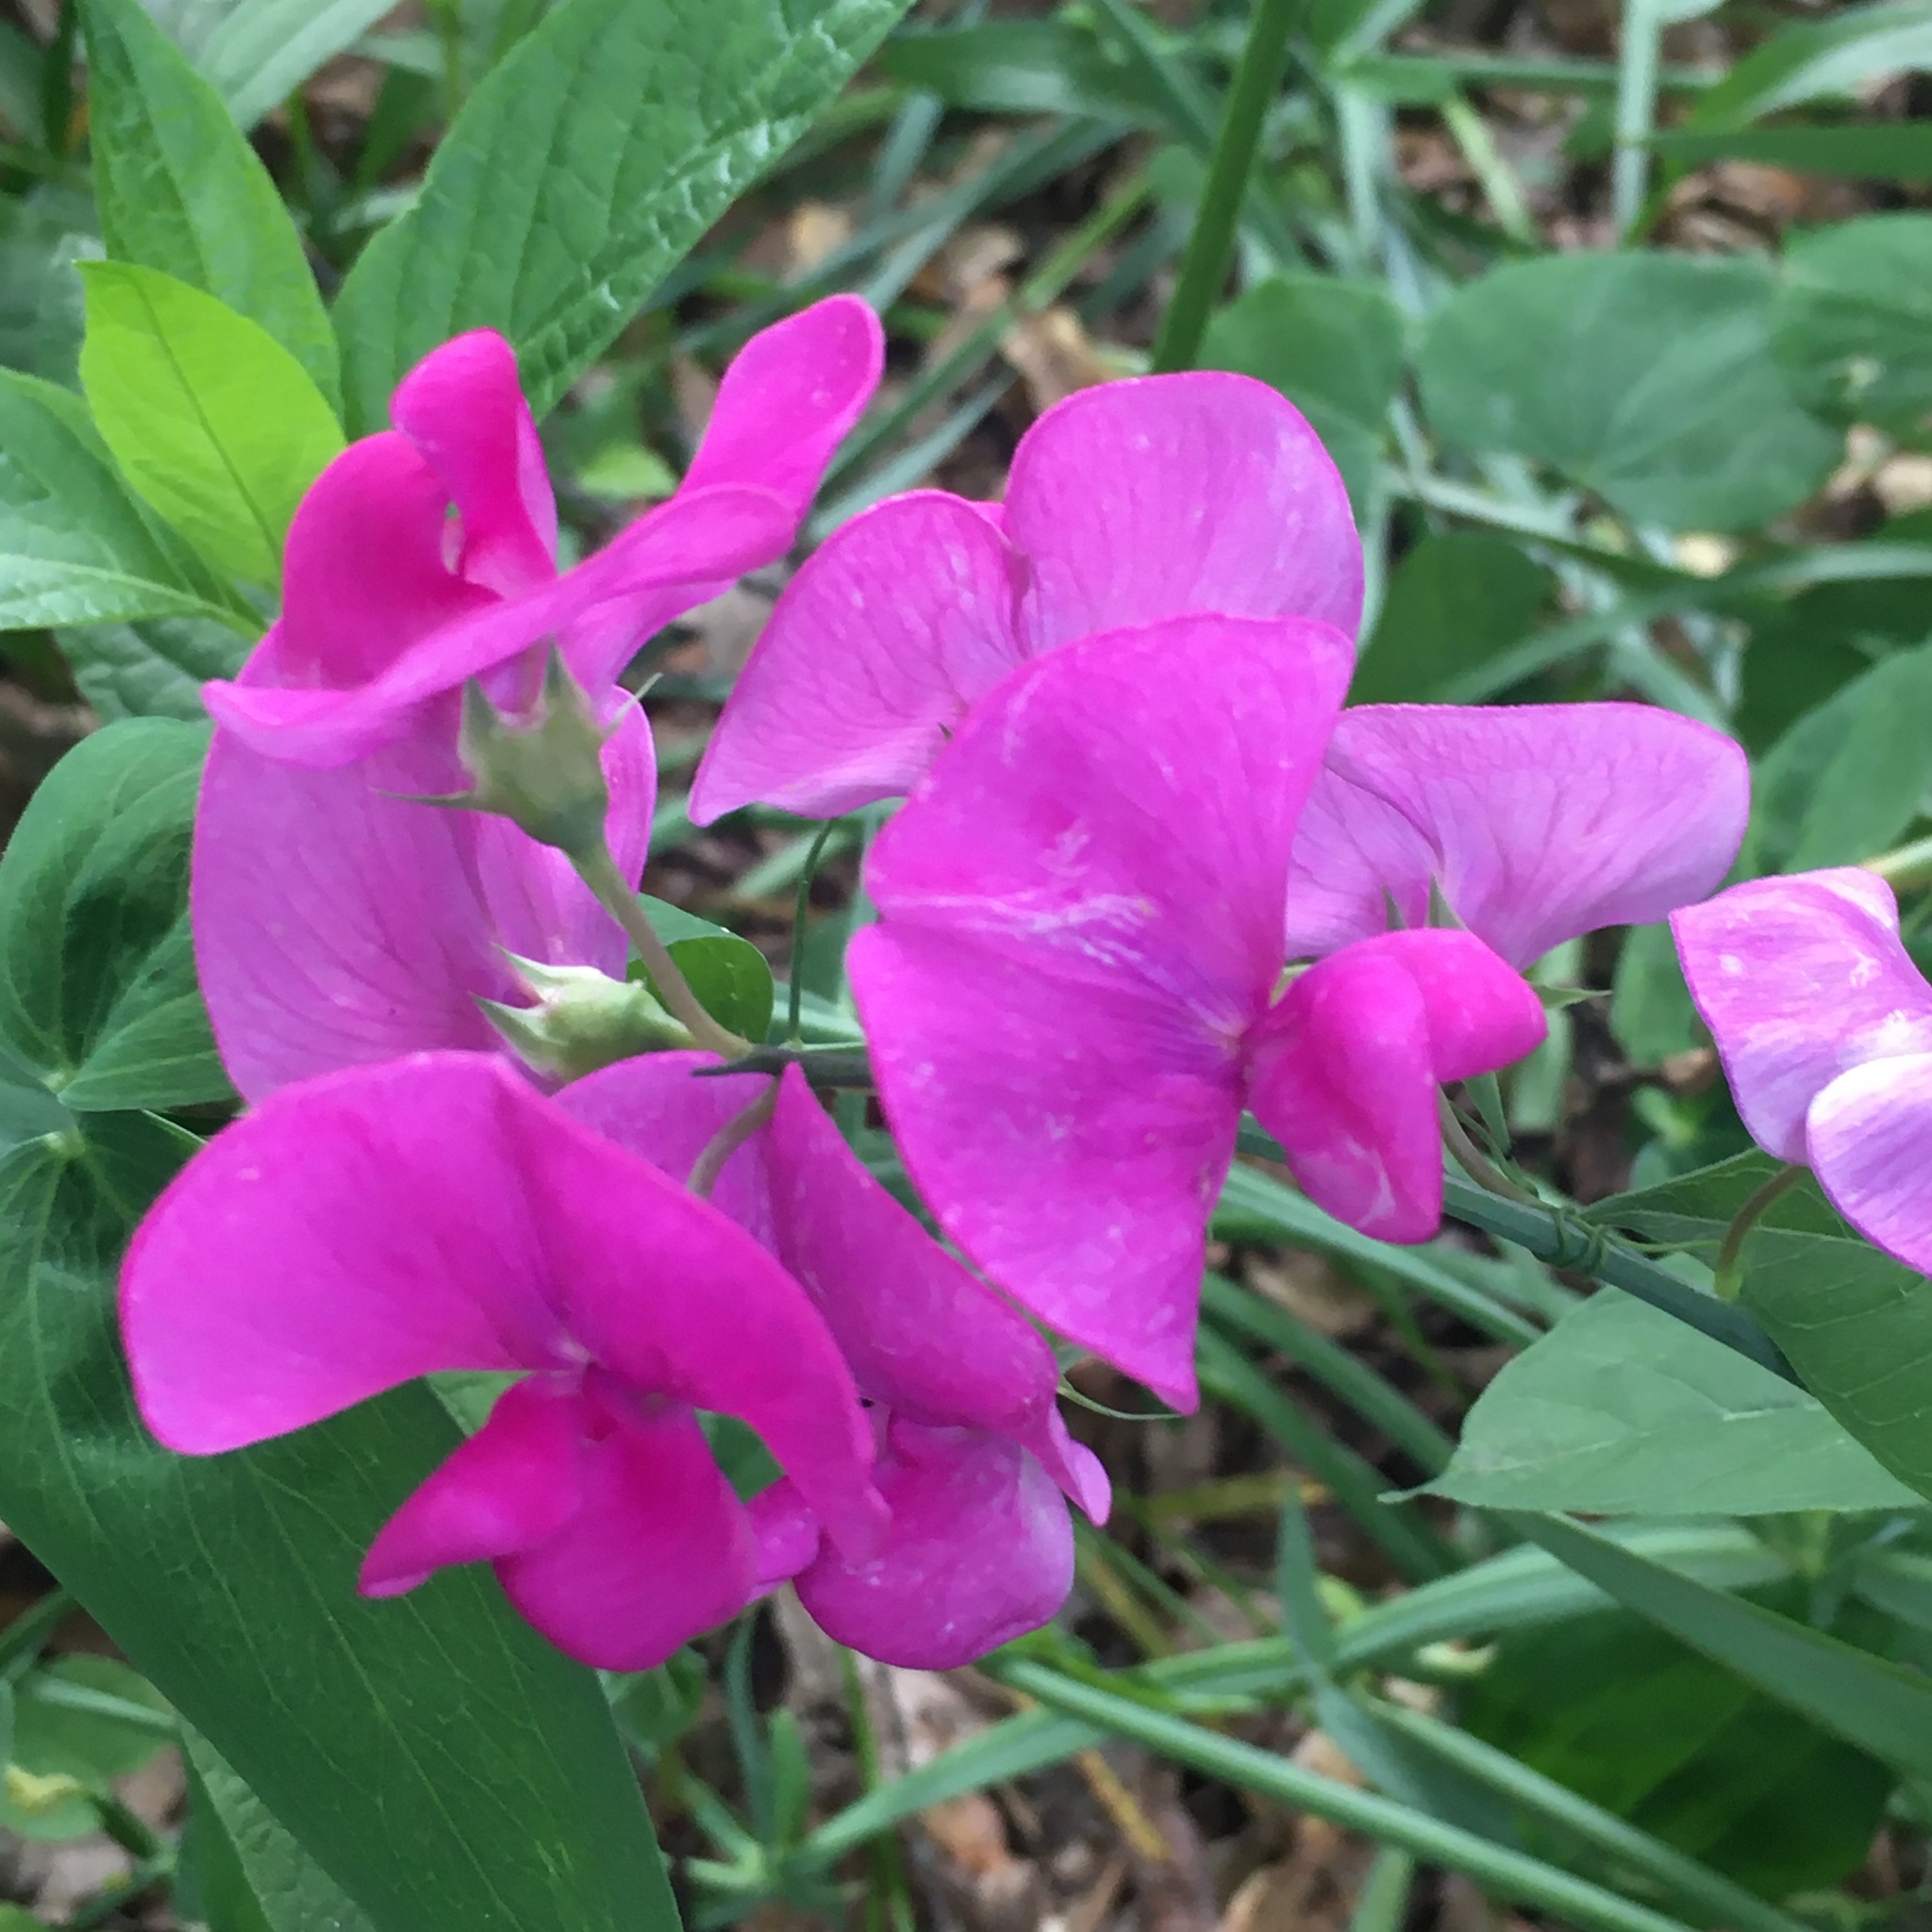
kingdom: Plantae
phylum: Tracheophyta
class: Magnoliopsida
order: Fabales
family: Fabaceae
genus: Lathyrus
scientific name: Lathyrus latifolius
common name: Perennial pea
